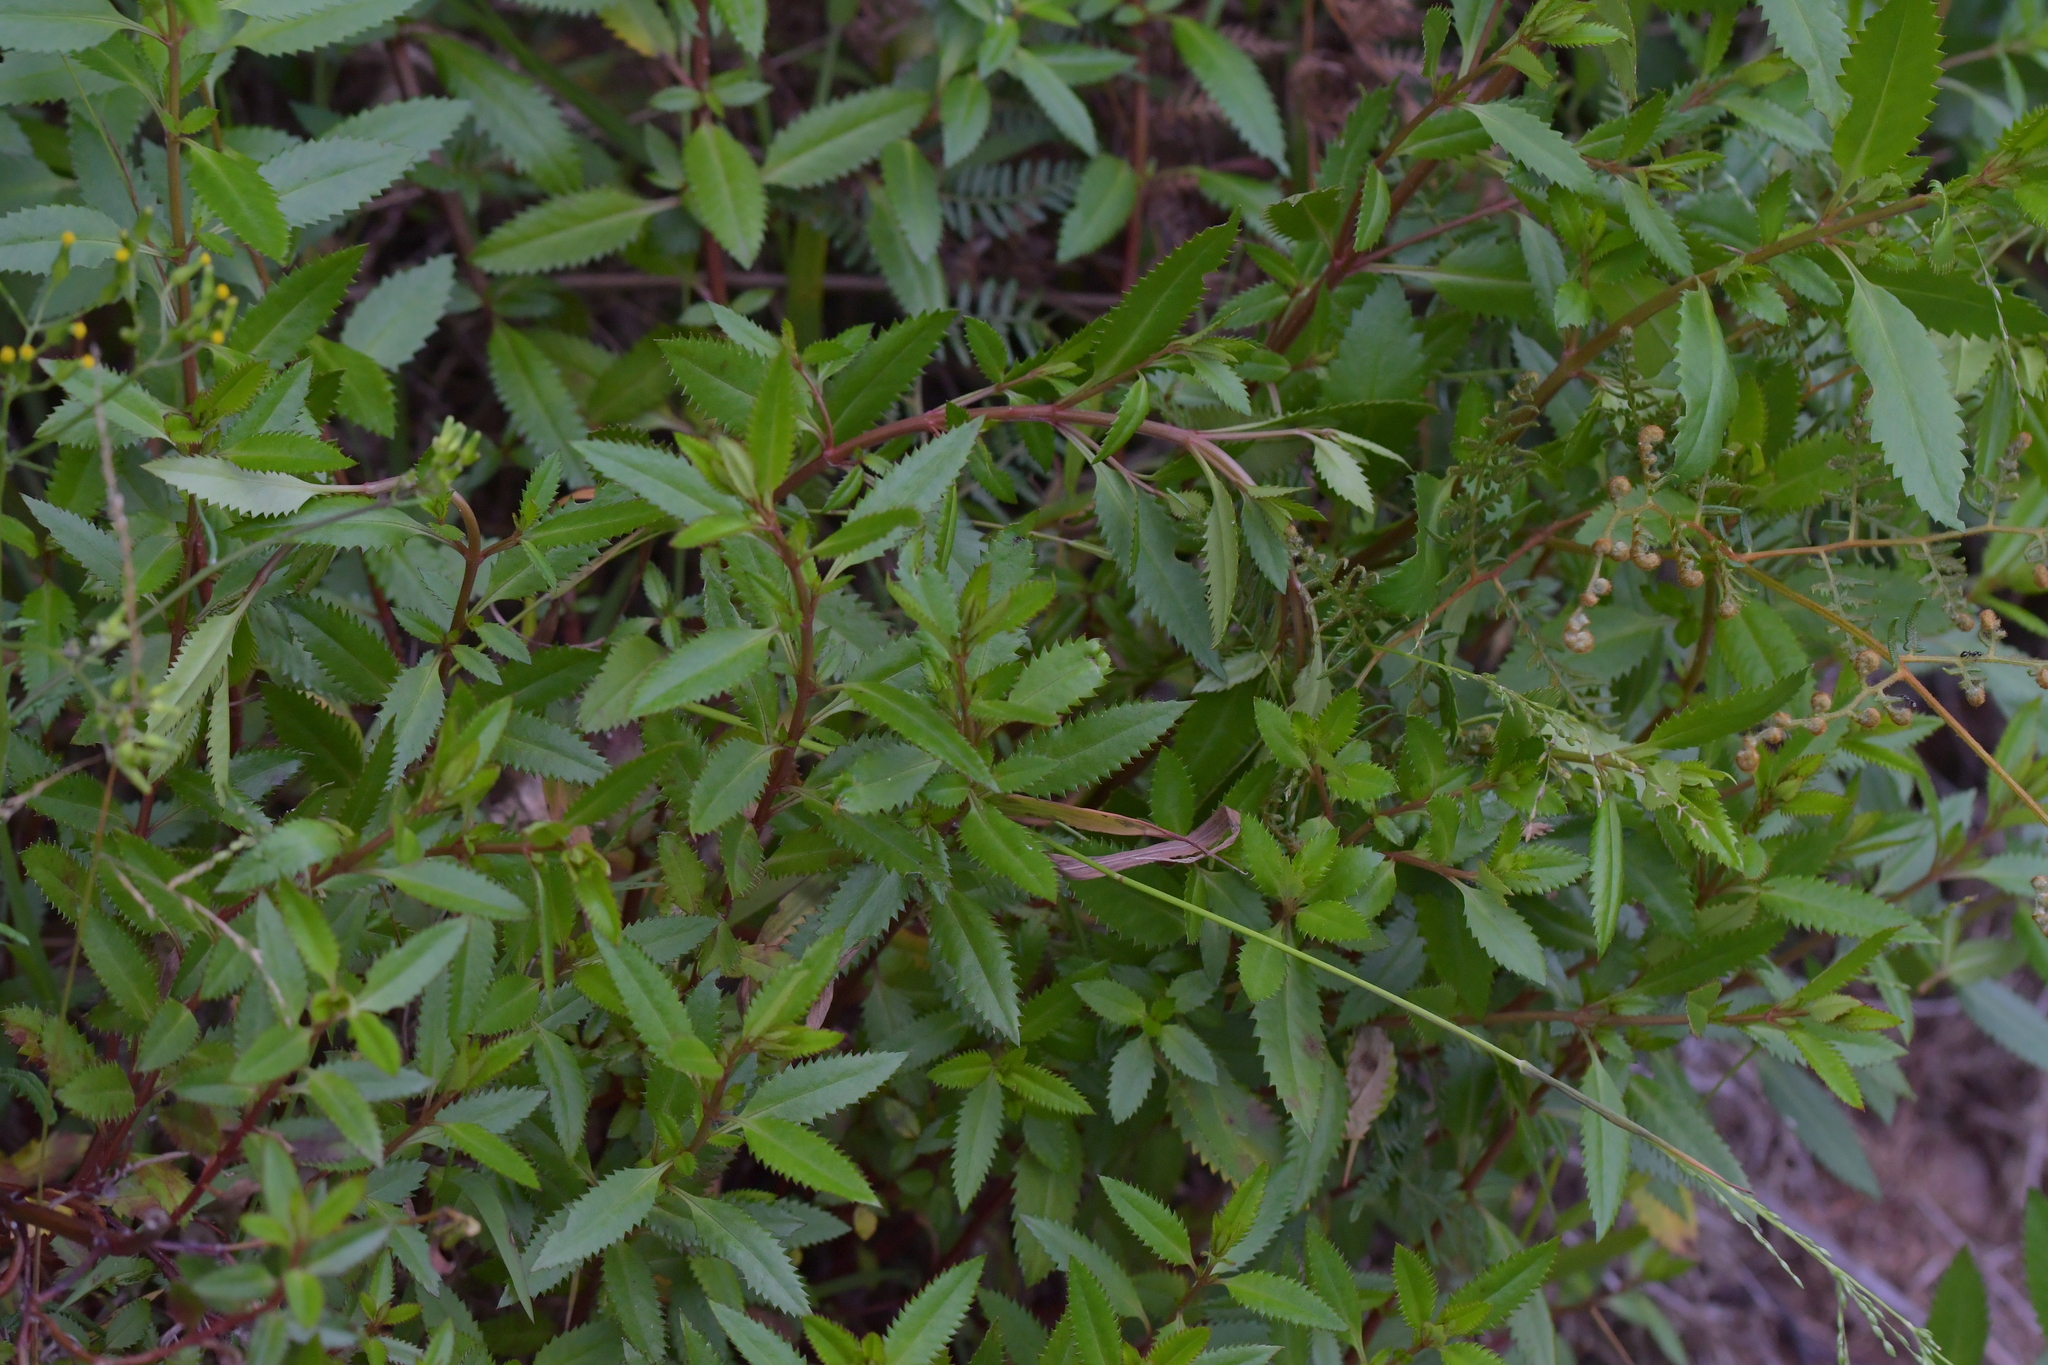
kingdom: Plantae
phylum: Tracheophyta
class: Magnoliopsida
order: Saxifragales
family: Haloragaceae
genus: Haloragis
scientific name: Haloragis erecta
